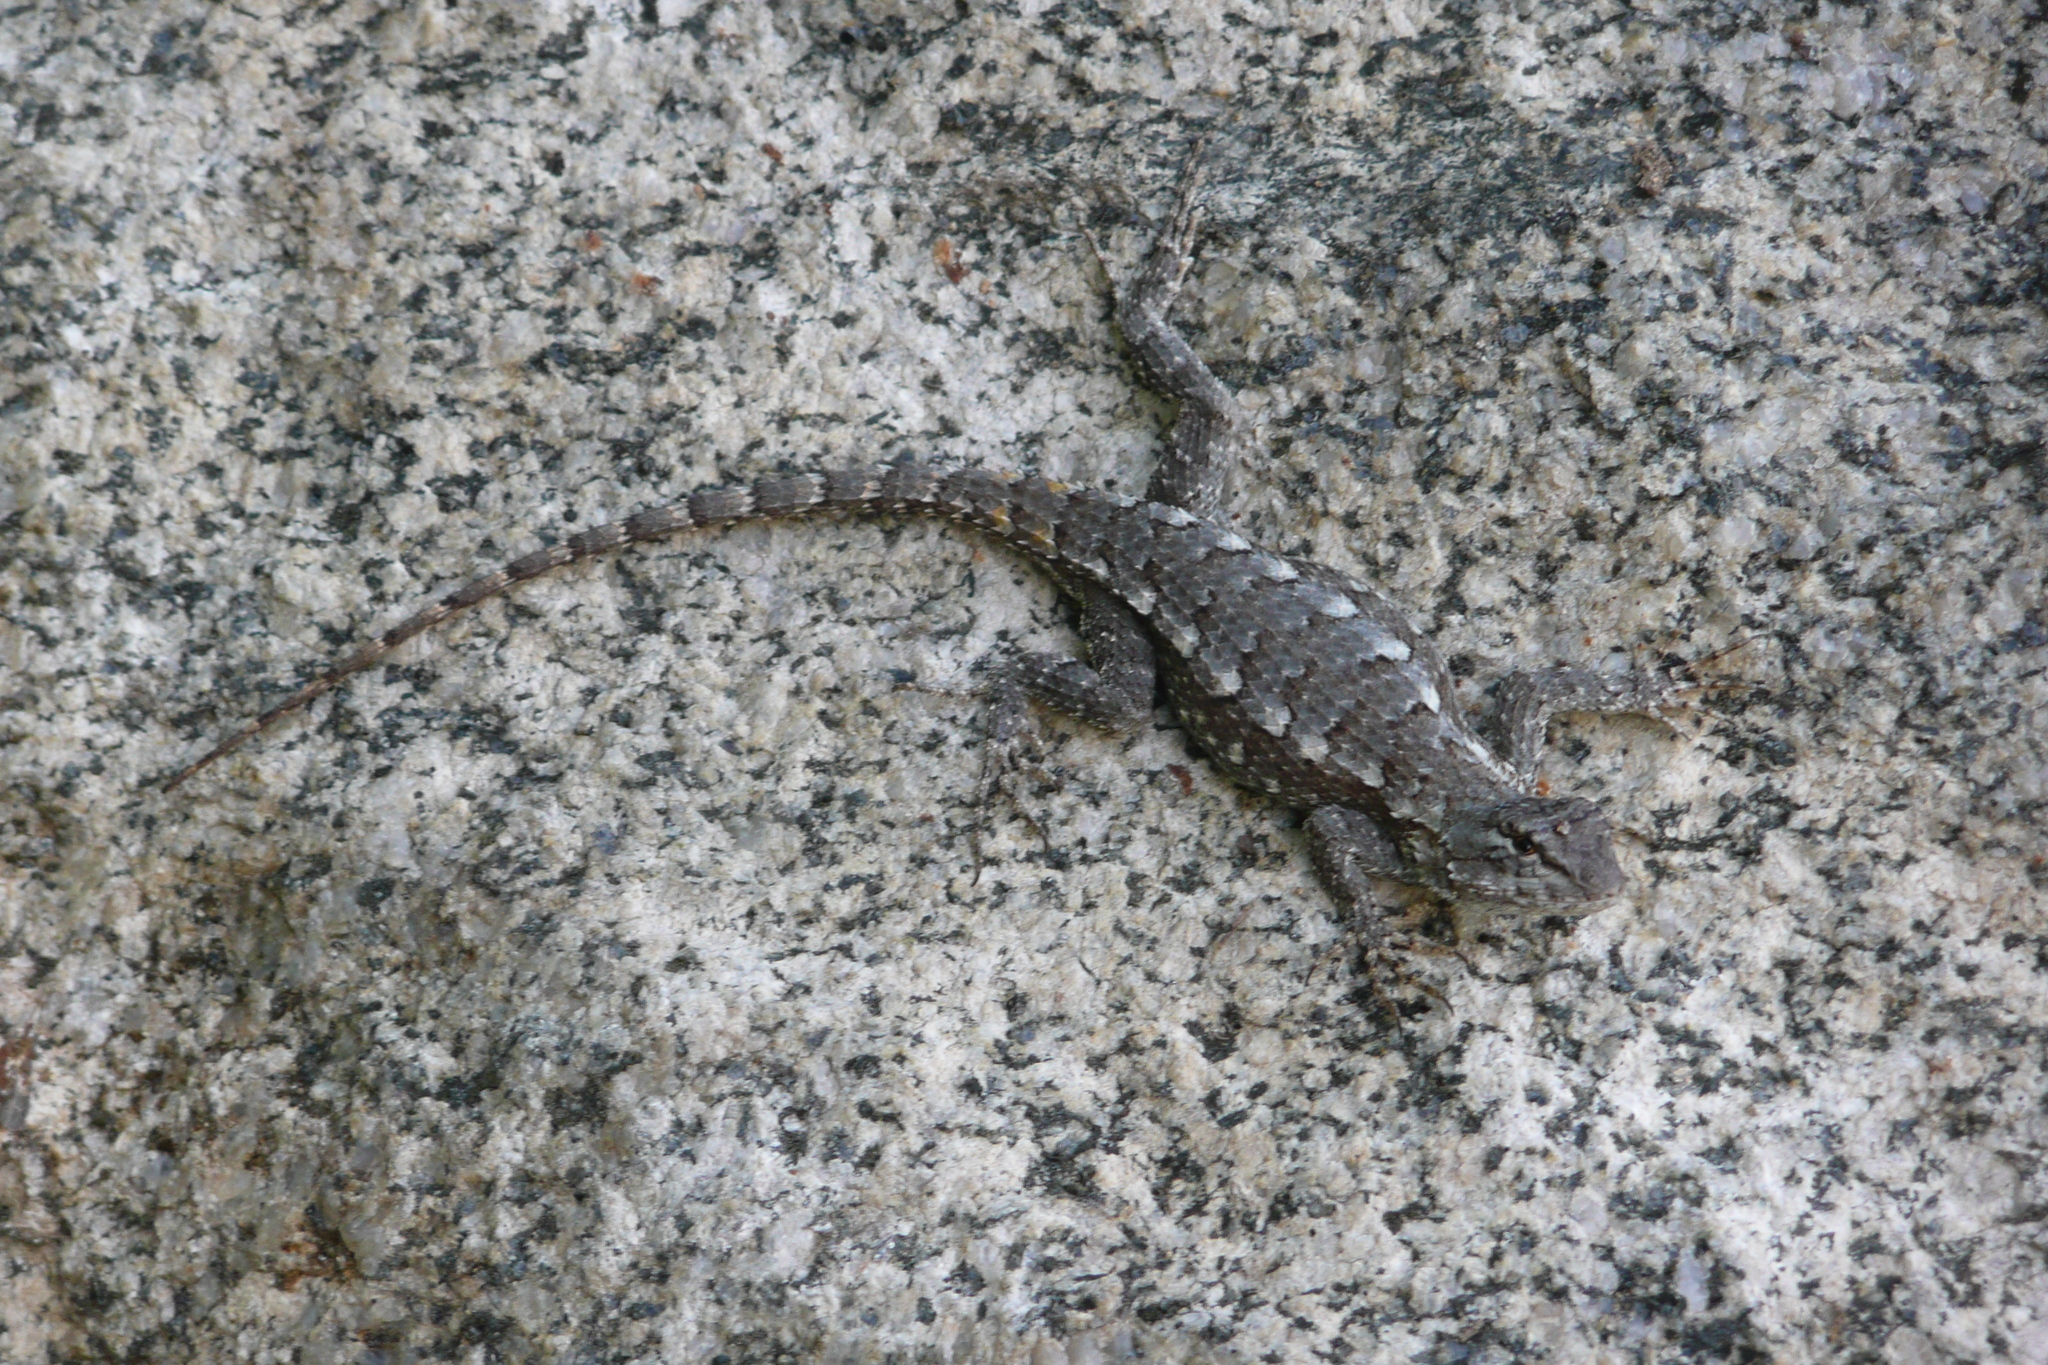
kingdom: Animalia
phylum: Chordata
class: Squamata
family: Phrynosomatidae
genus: Sceloporus
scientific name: Sceloporus undulatus
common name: Eastern fence lizard
